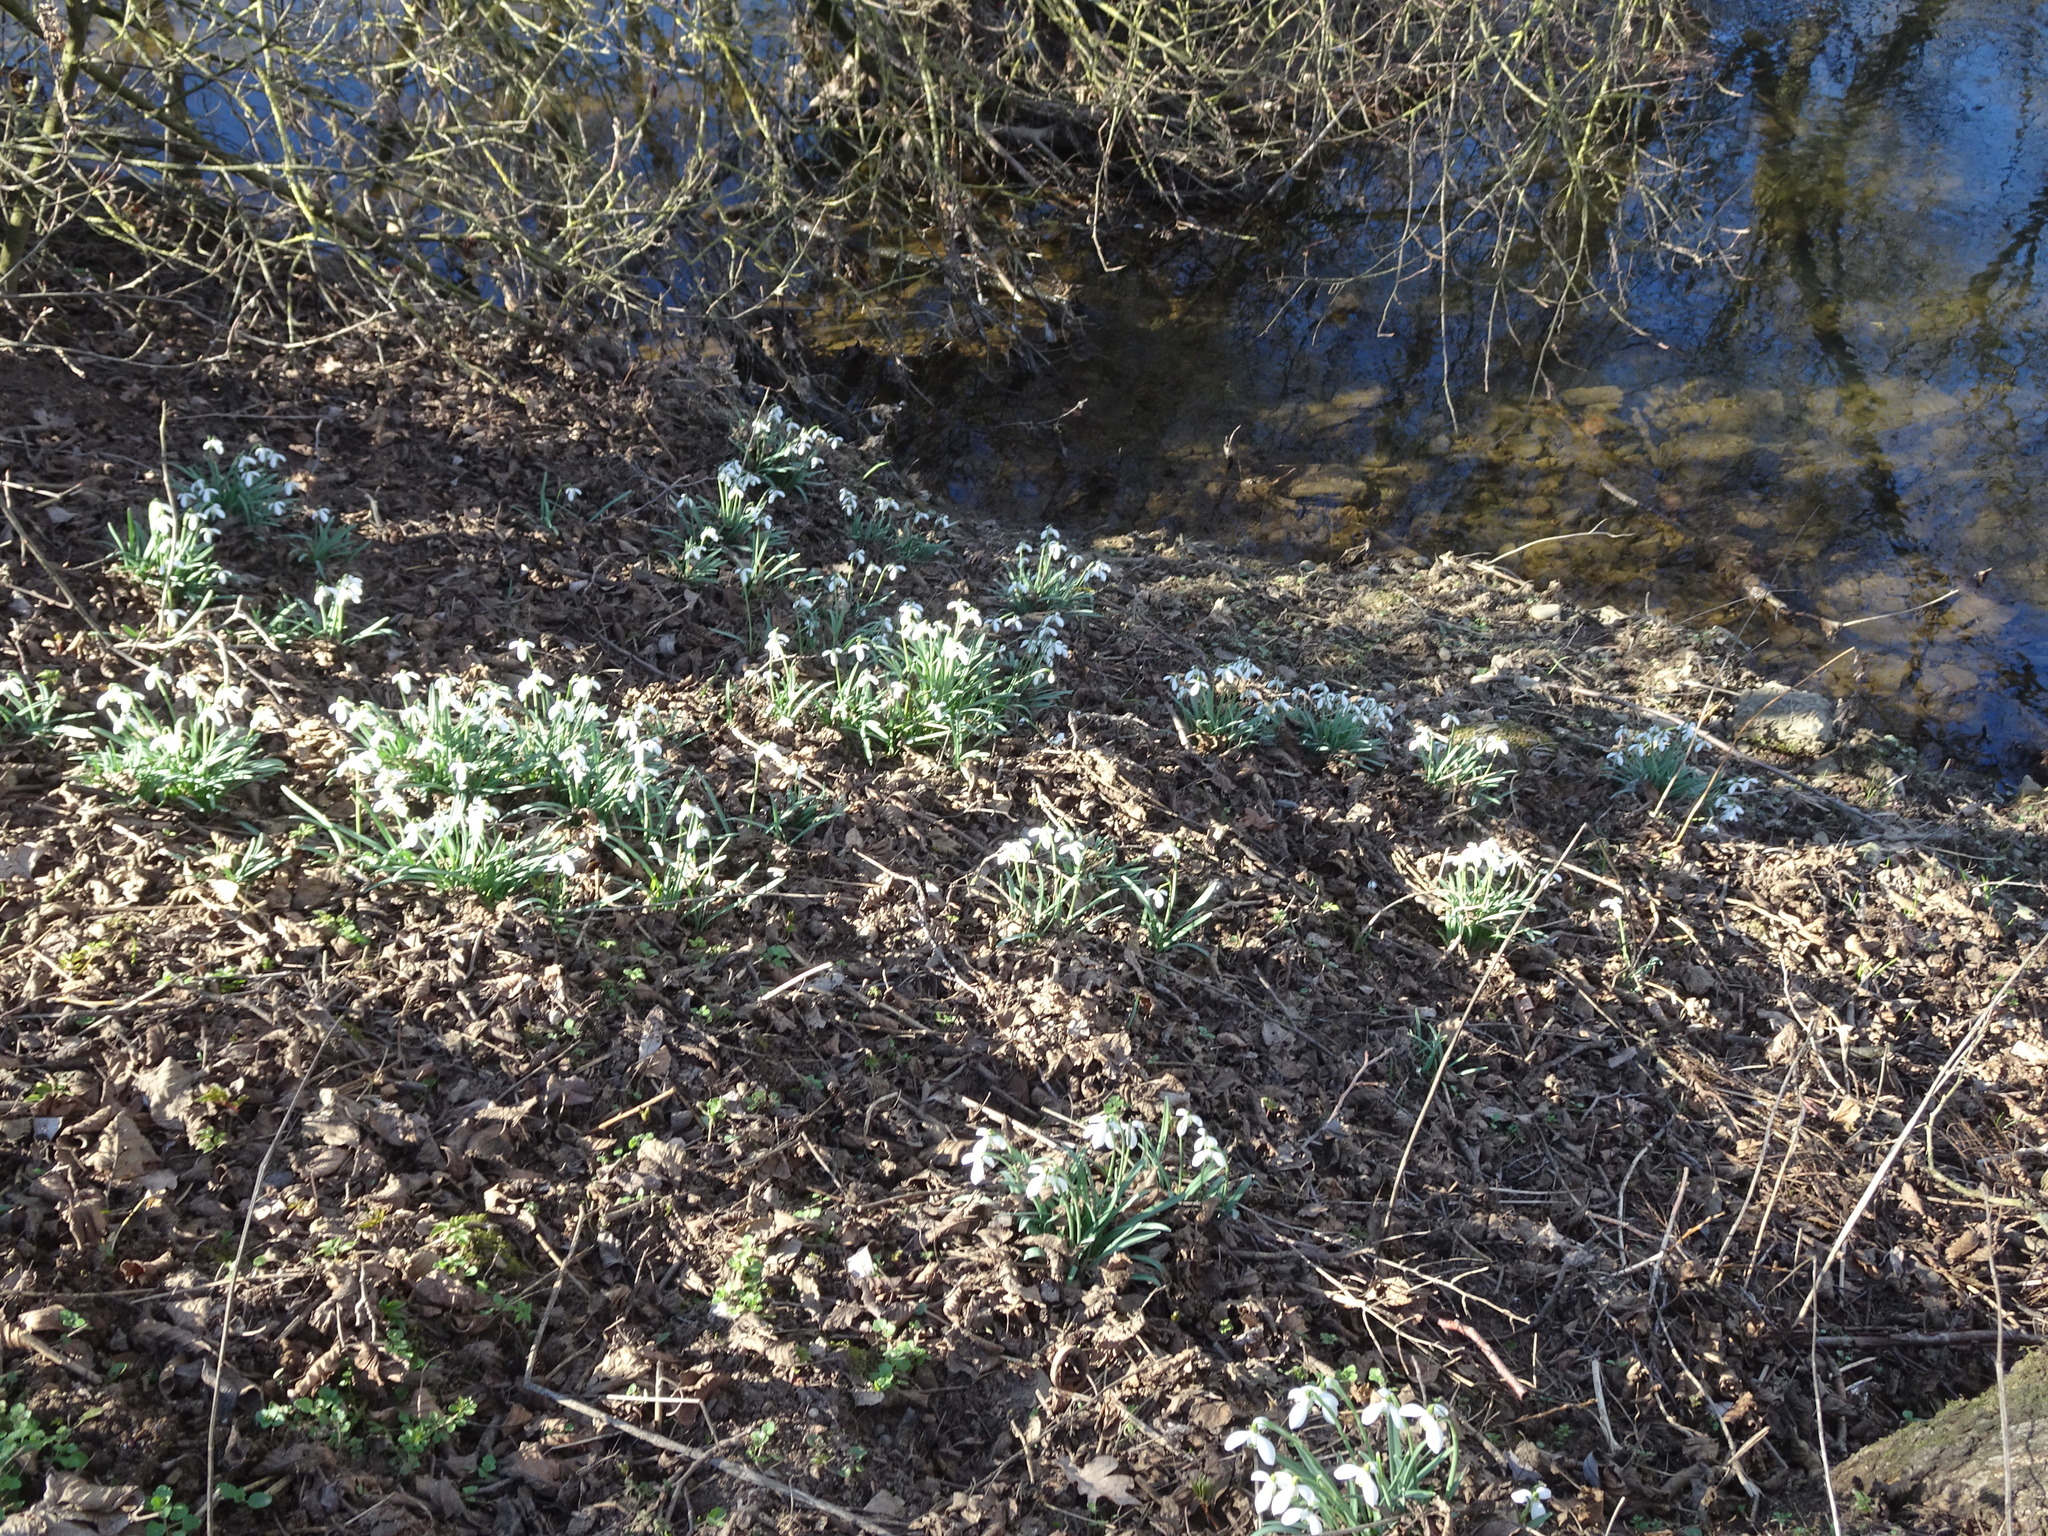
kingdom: Plantae
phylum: Tracheophyta
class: Liliopsida
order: Asparagales
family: Amaryllidaceae
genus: Galanthus
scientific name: Galanthus nivalis
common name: Snowdrop
